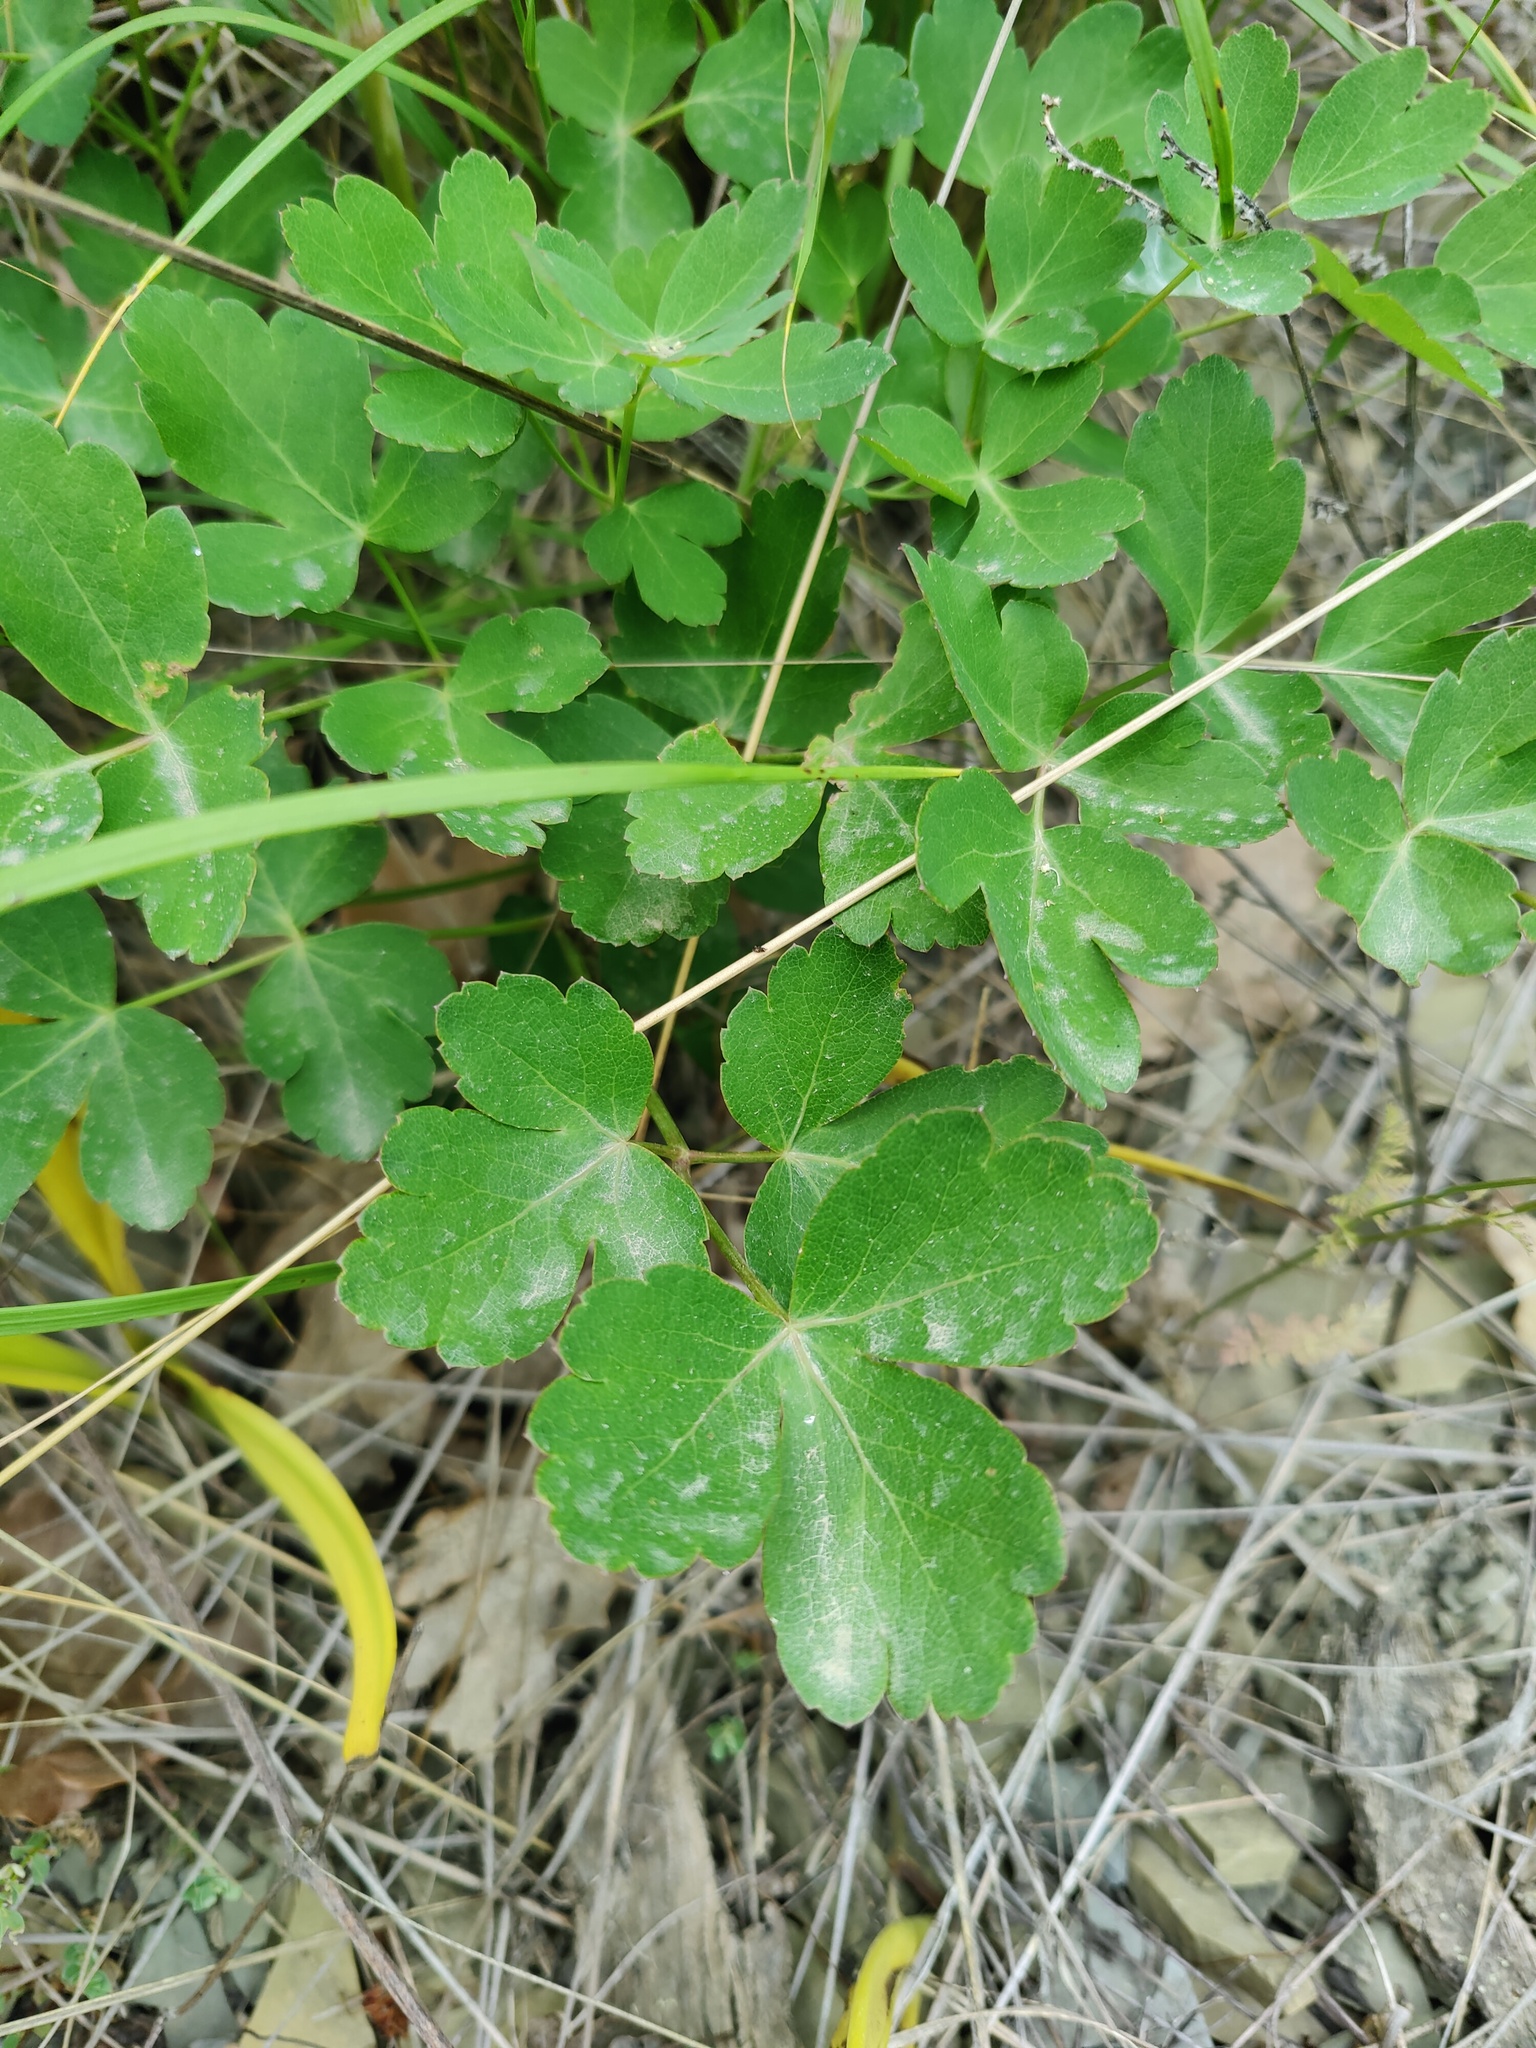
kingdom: Plantae
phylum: Tracheophyta
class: Magnoliopsida
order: Apiales
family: Apiaceae
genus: Laser
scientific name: Laser trilobum
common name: Laser
